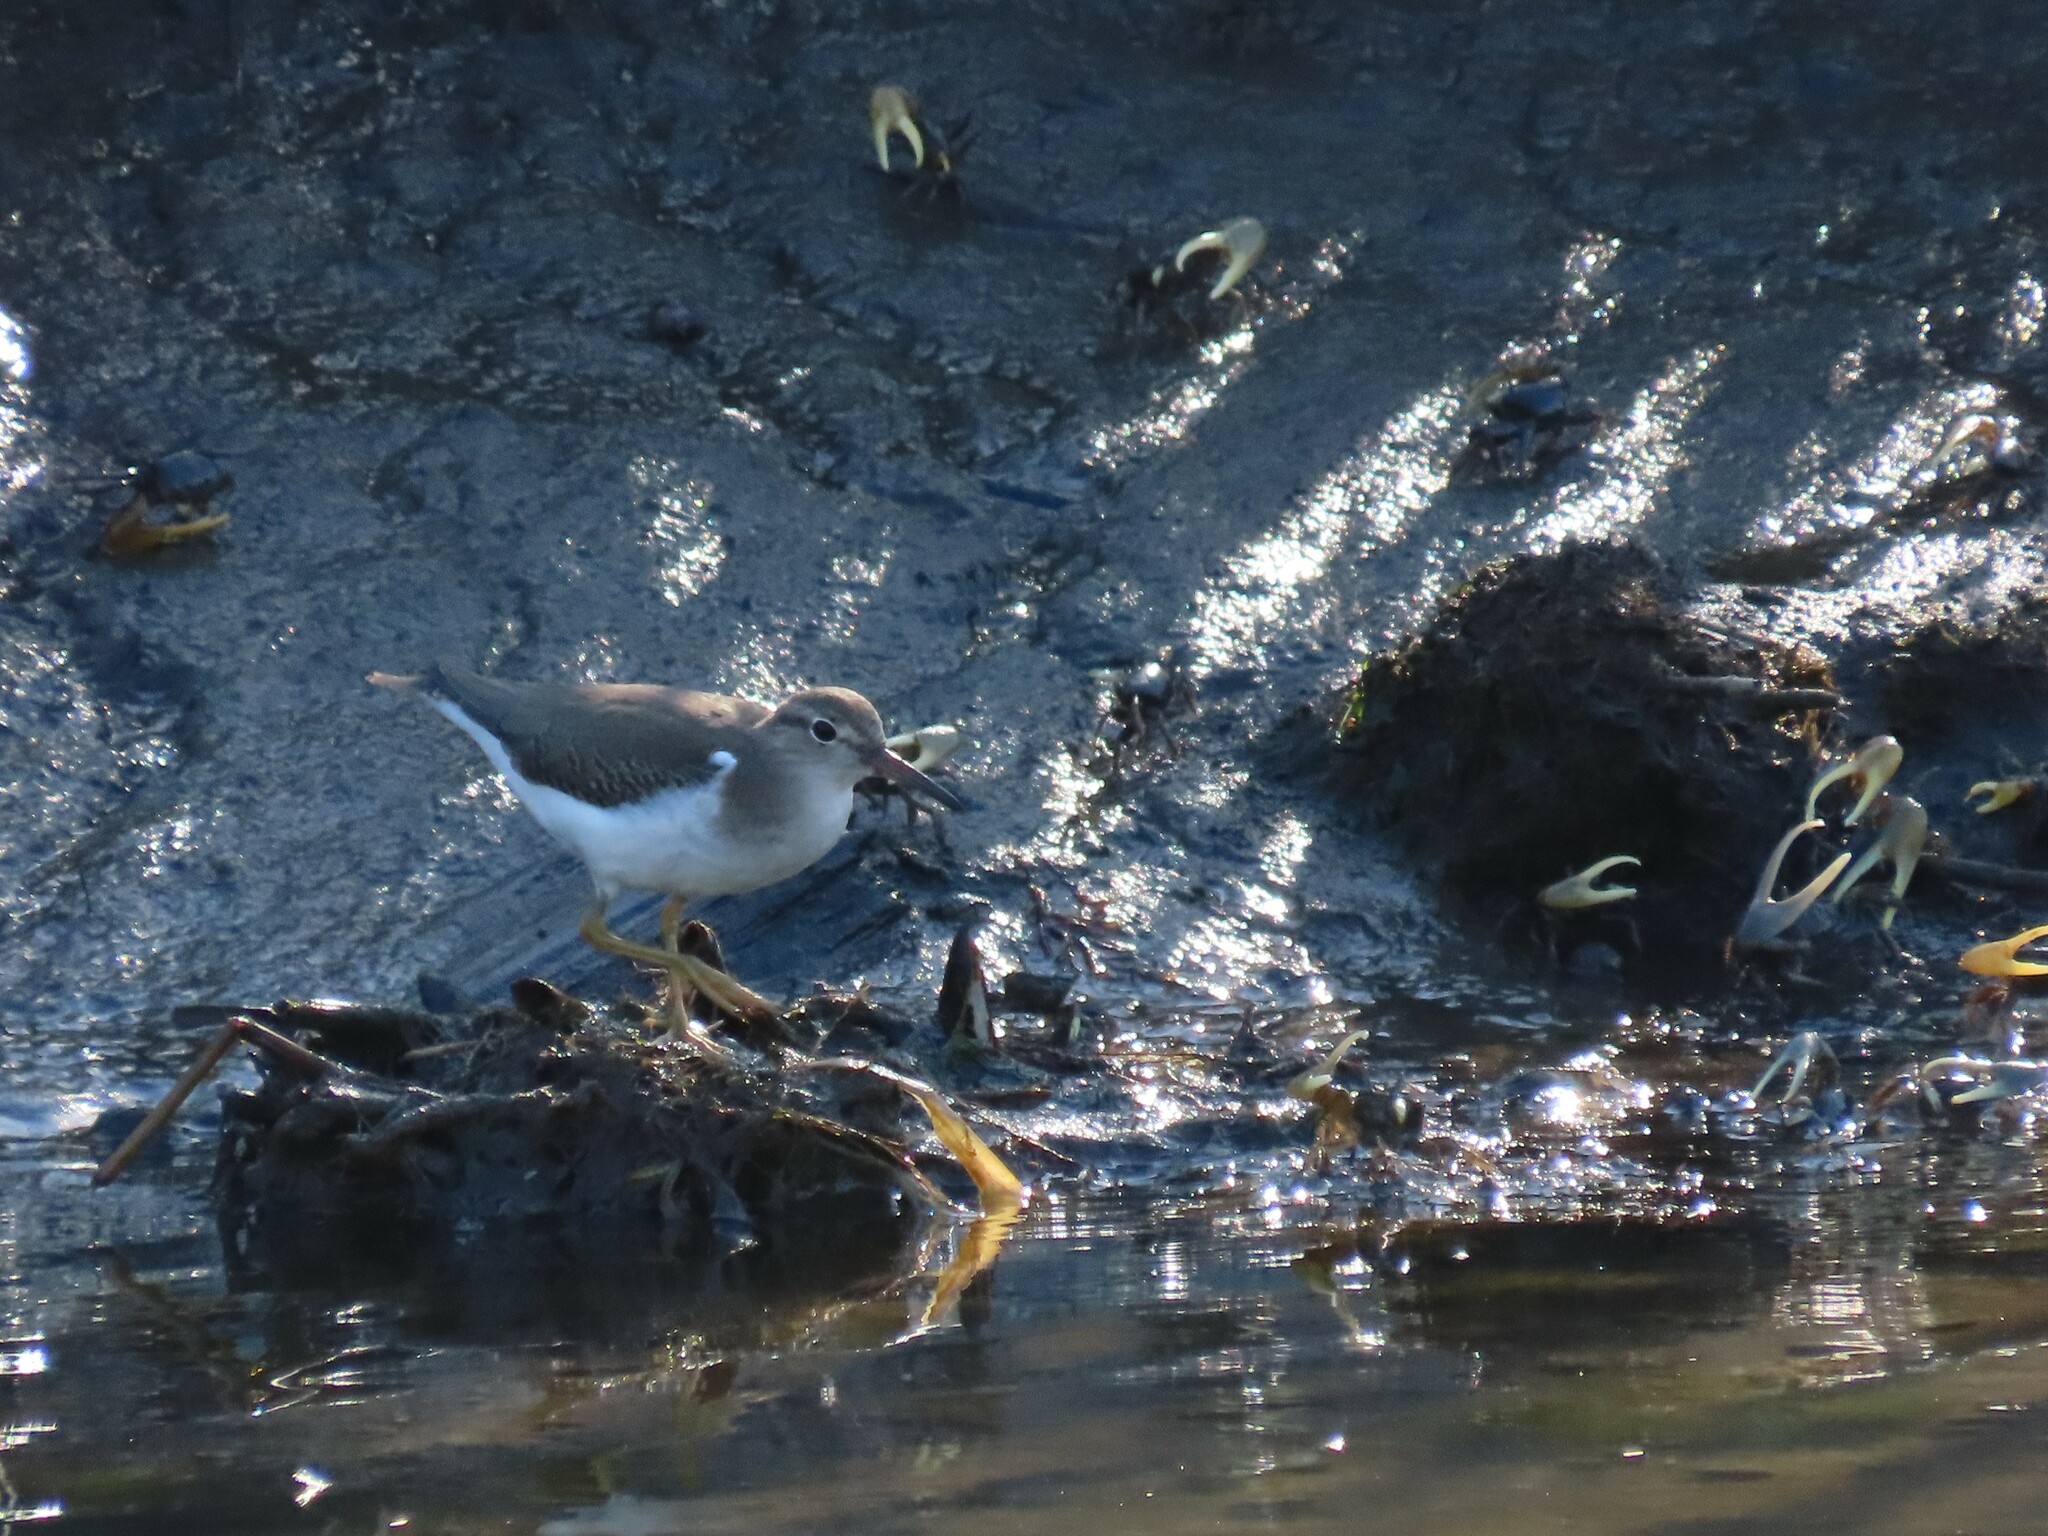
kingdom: Animalia
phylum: Chordata
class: Aves
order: Charadriiformes
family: Scolopacidae
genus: Actitis
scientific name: Actitis macularius
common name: Spotted sandpiper
